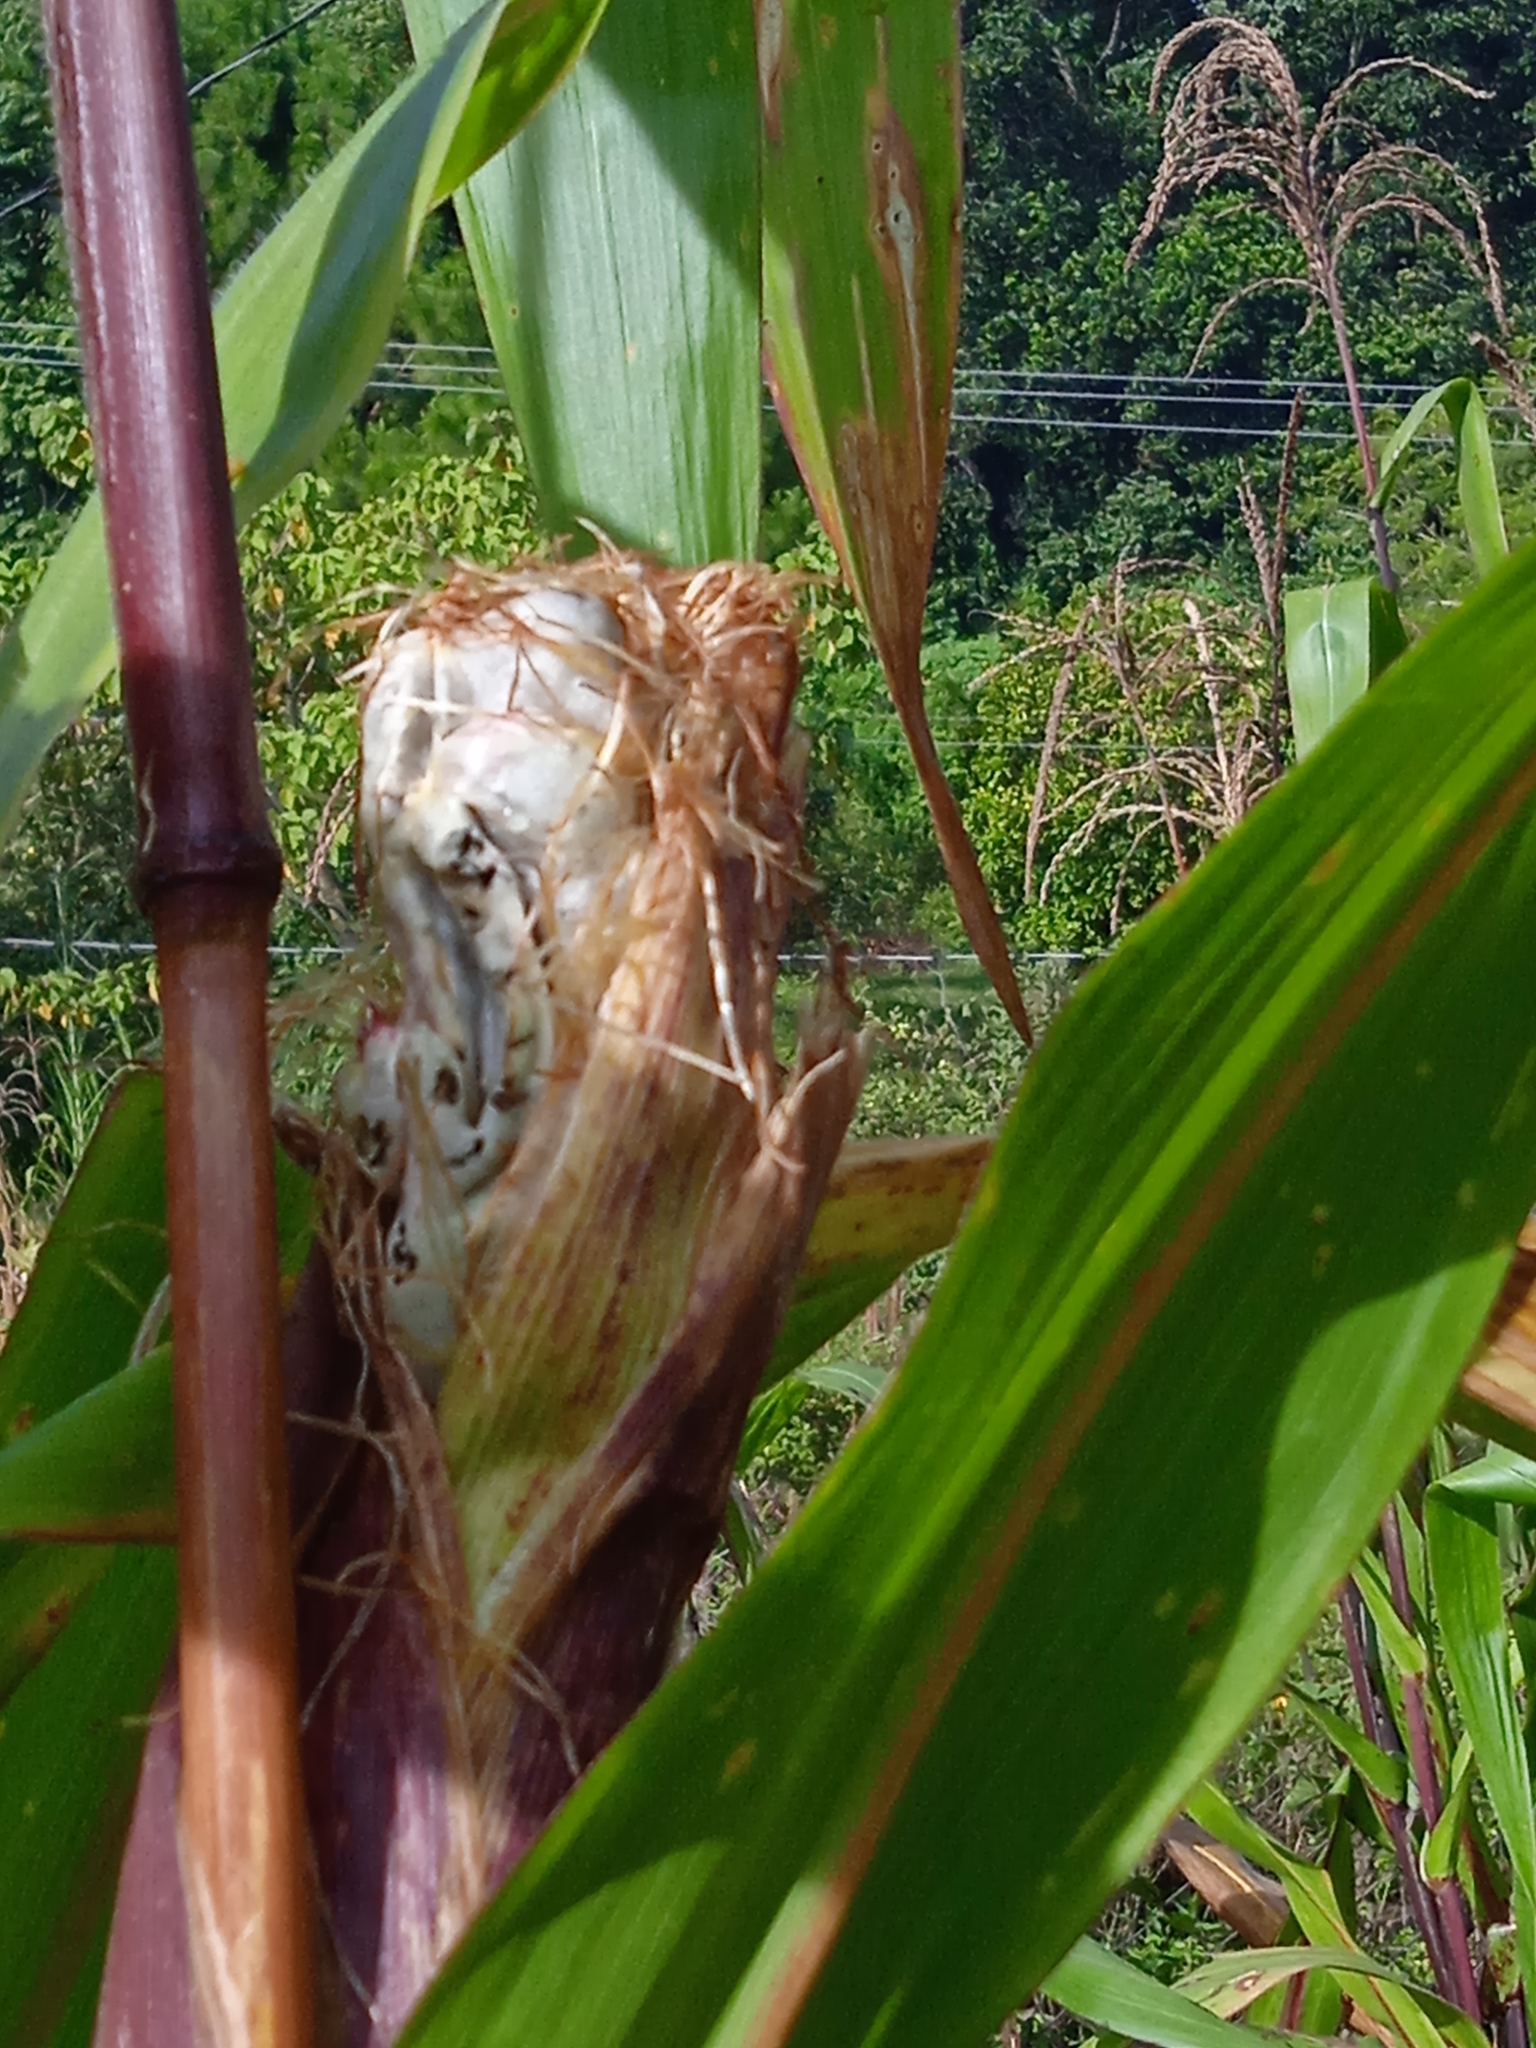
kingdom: Fungi
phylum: Basidiomycota
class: Ustilaginomycetes
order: Ustilaginales
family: Ustilaginaceae
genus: Mycosarcoma
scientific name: Mycosarcoma maydis
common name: Corn smut
